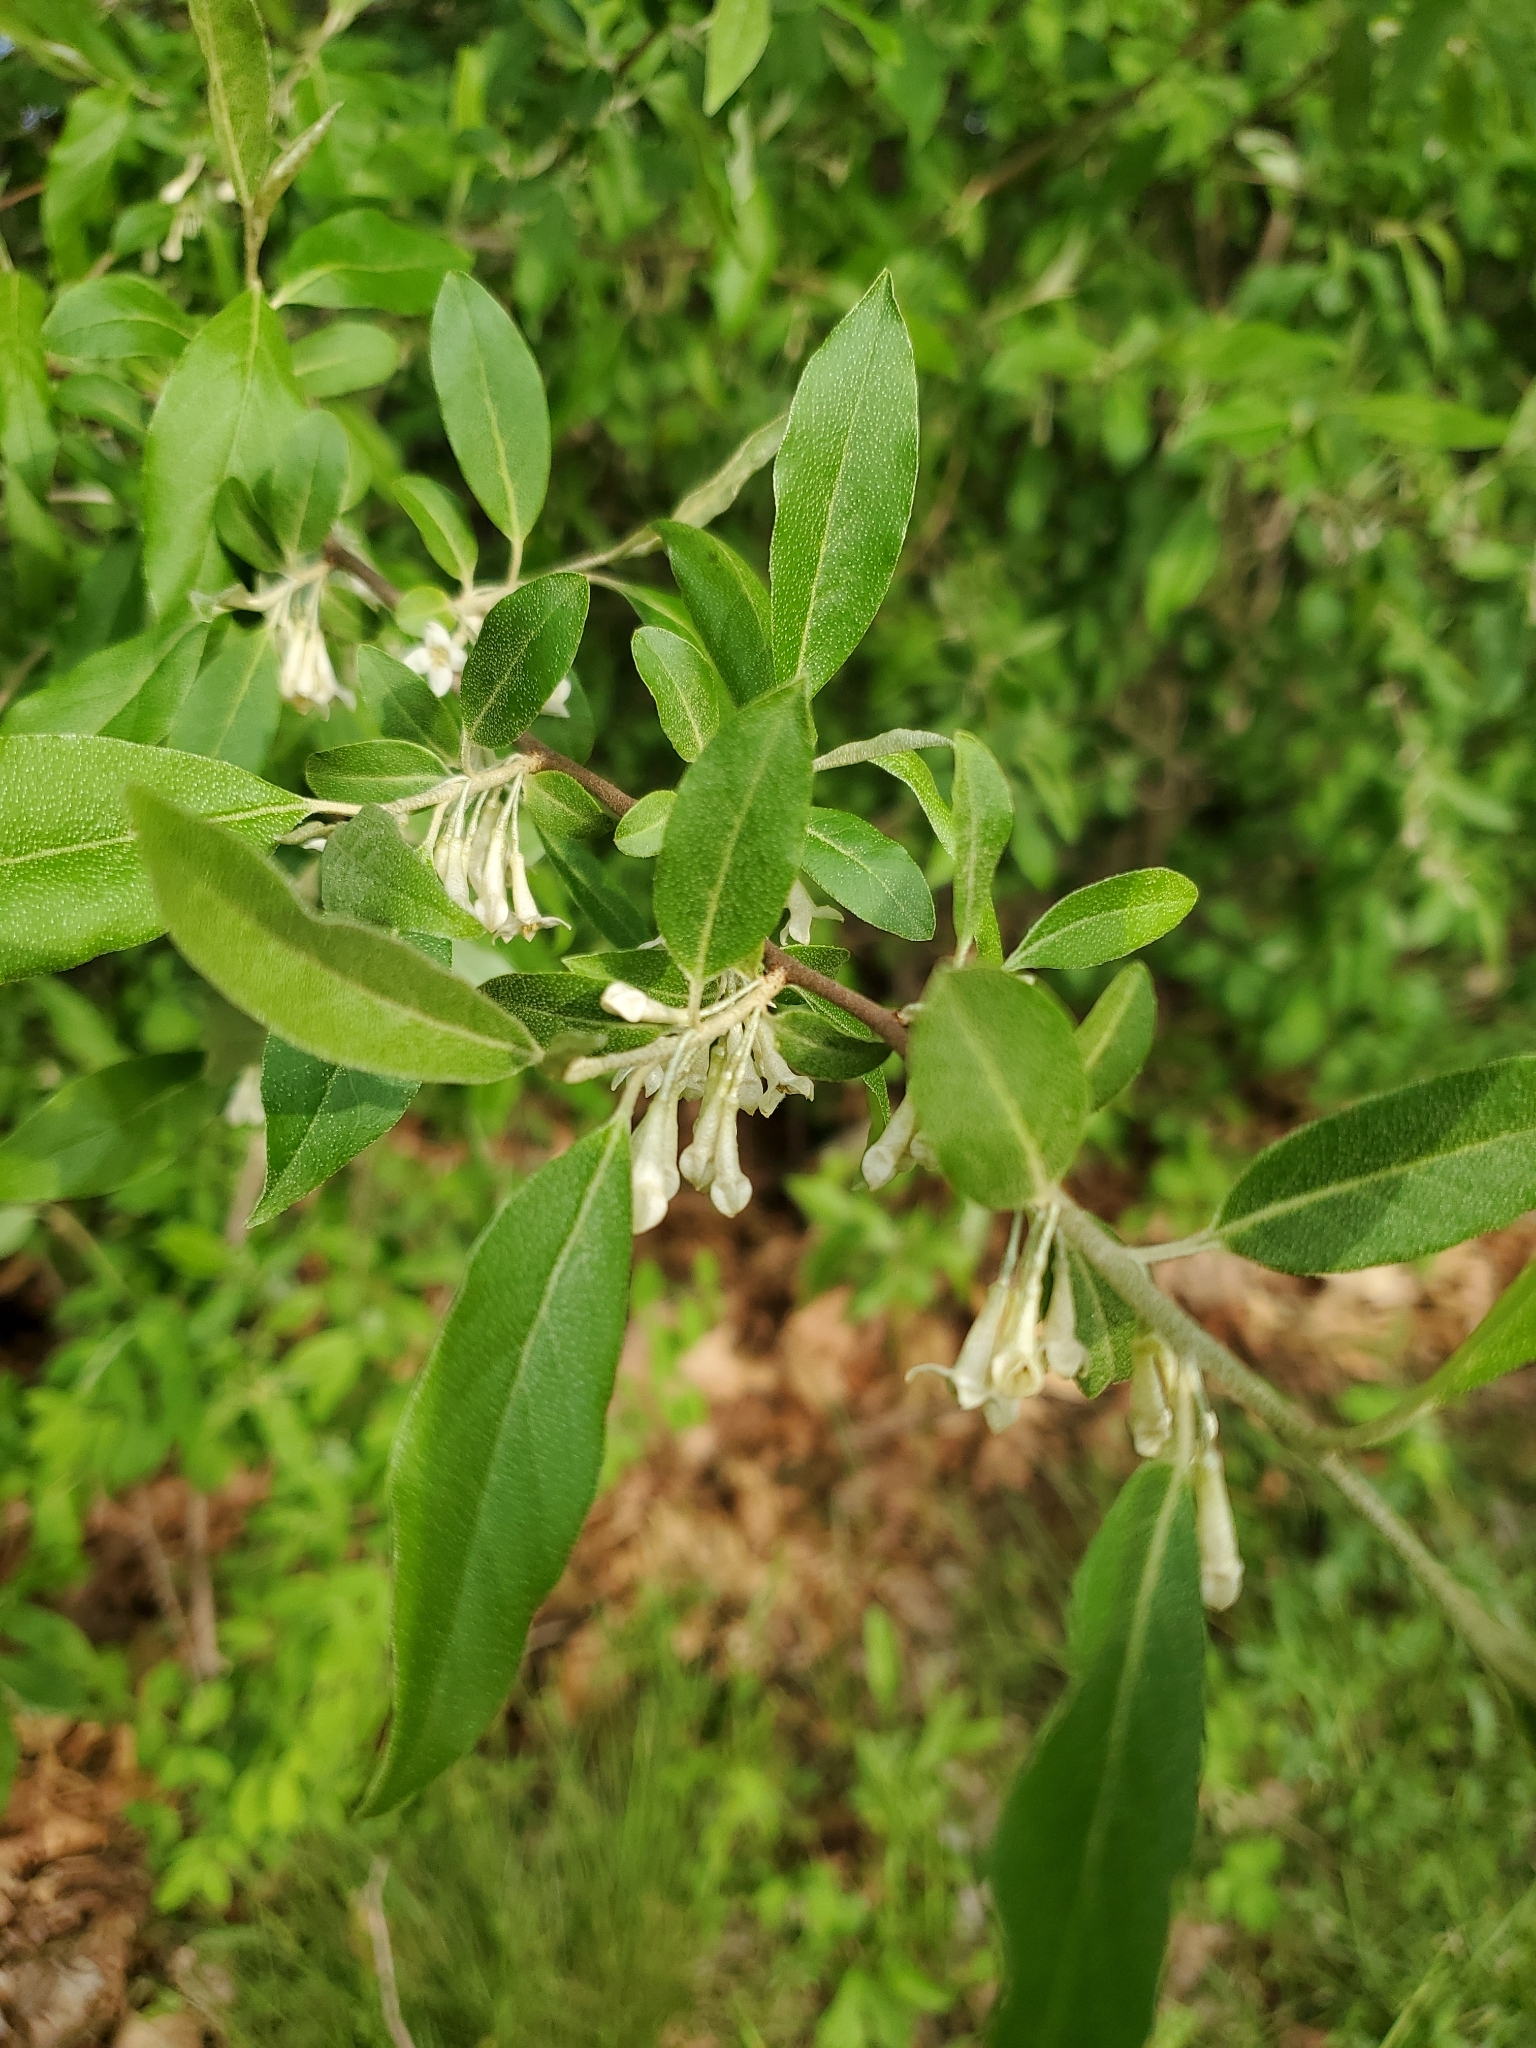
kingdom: Plantae
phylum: Tracheophyta
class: Magnoliopsida
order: Rosales
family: Elaeagnaceae
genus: Elaeagnus
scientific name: Elaeagnus umbellata
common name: Autumn olive
